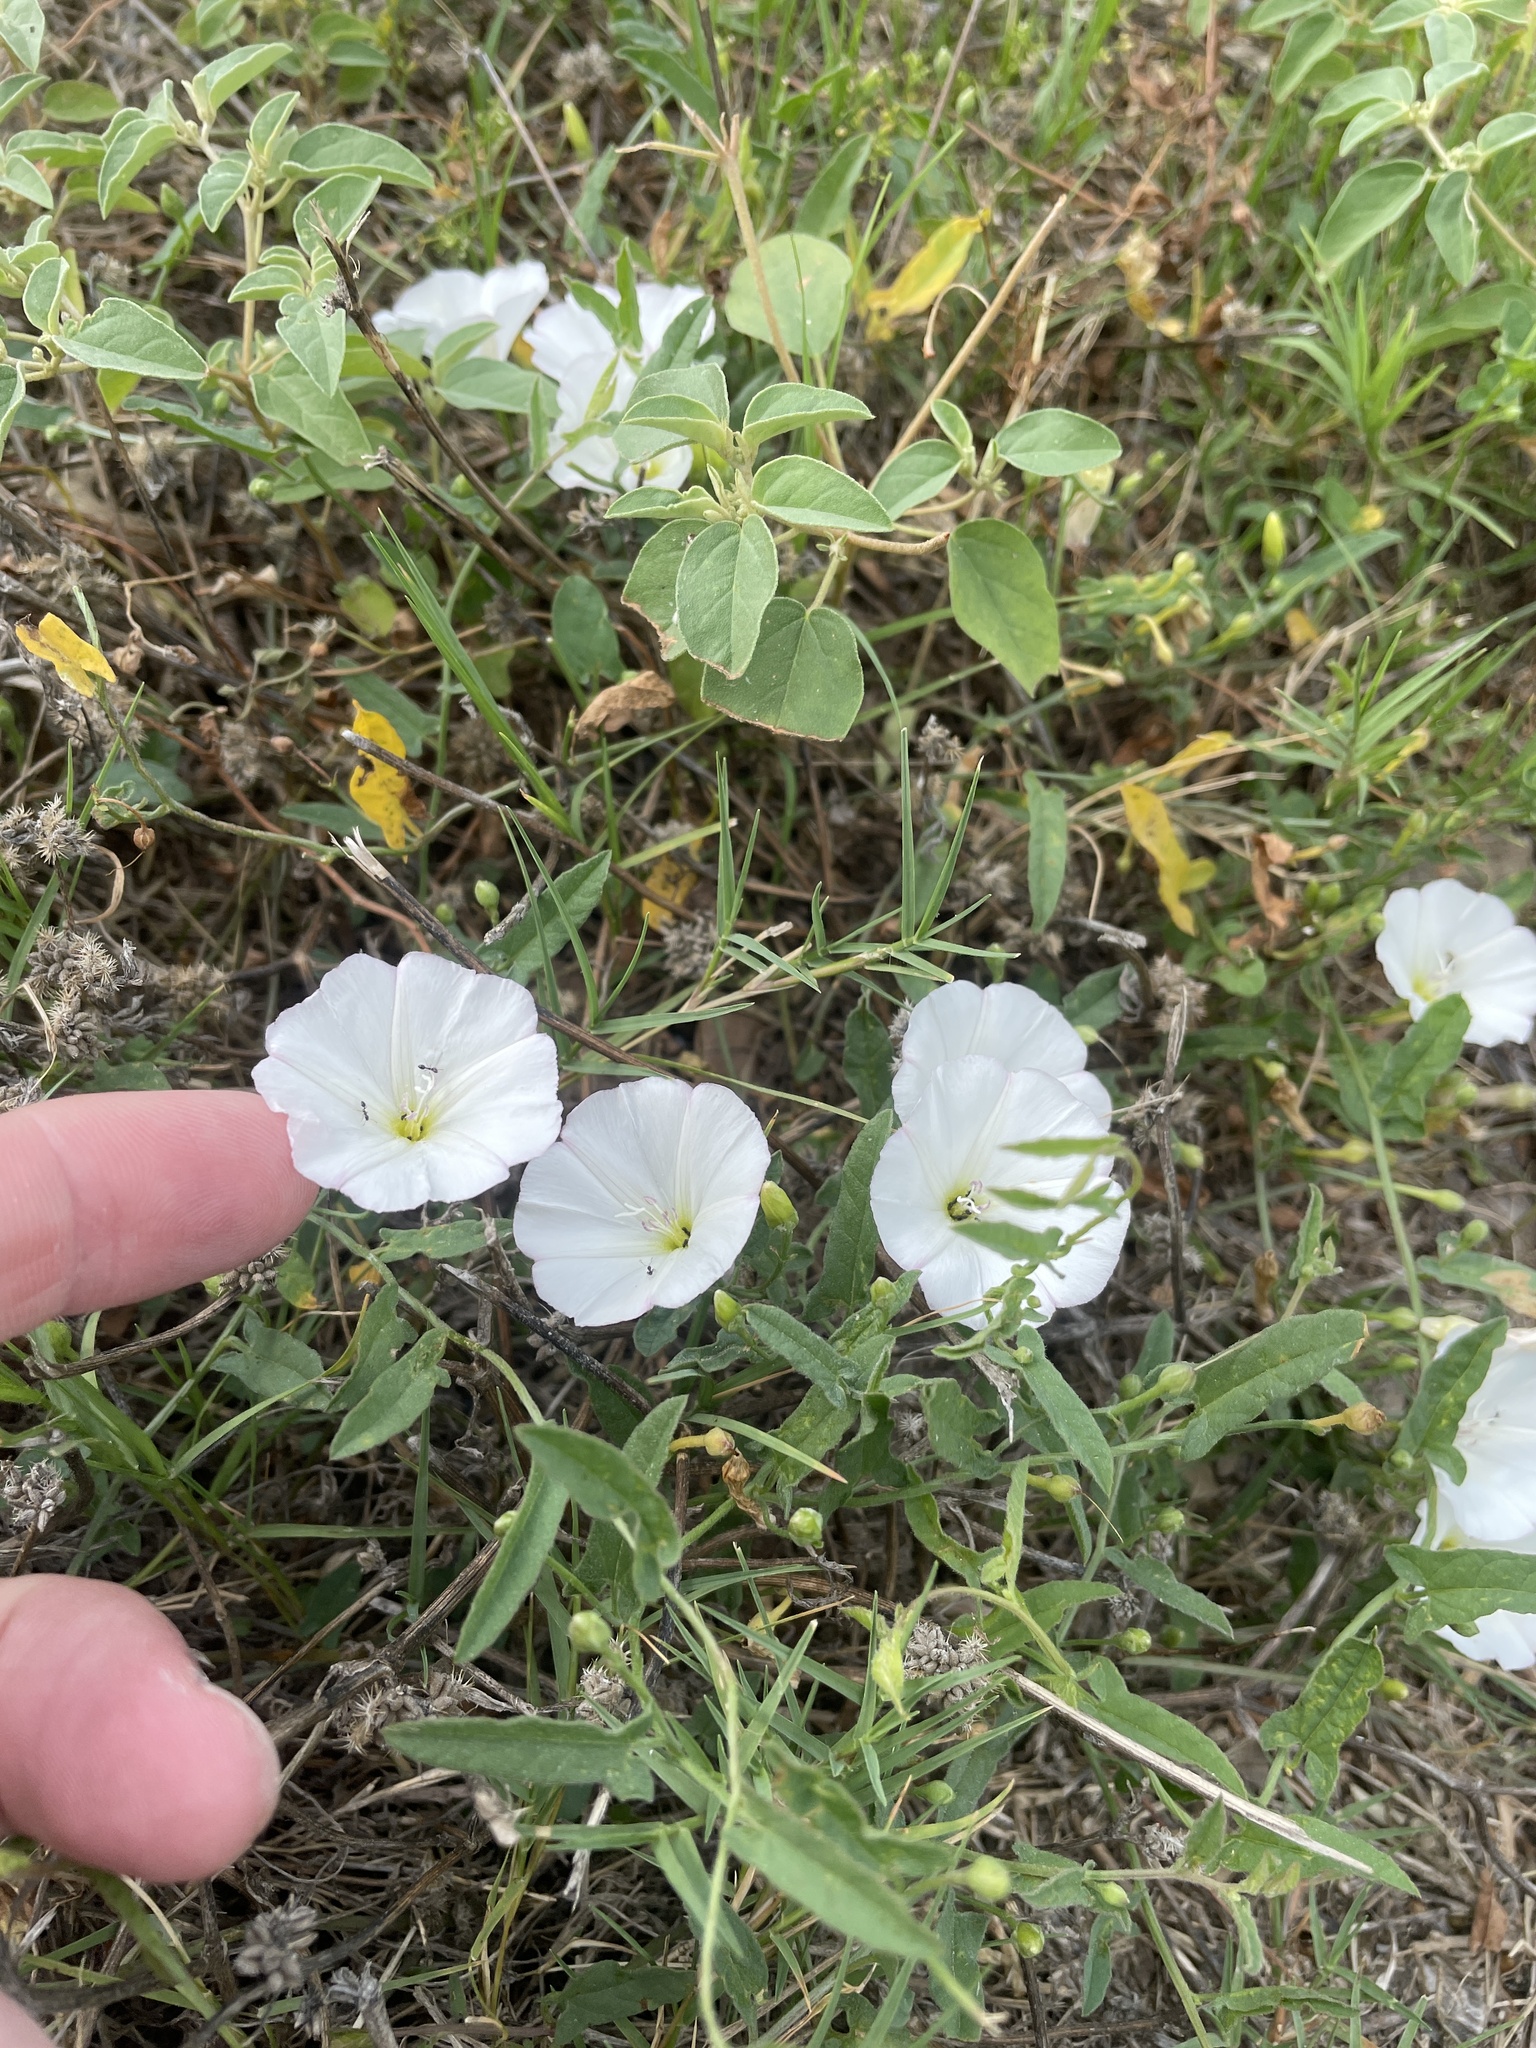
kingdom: Plantae
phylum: Tracheophyta
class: Magnoliopsida
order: Solanales
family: Convolvulaceae
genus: Convolvulus
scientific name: Convolvulus arvensis
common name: Field bindweed
